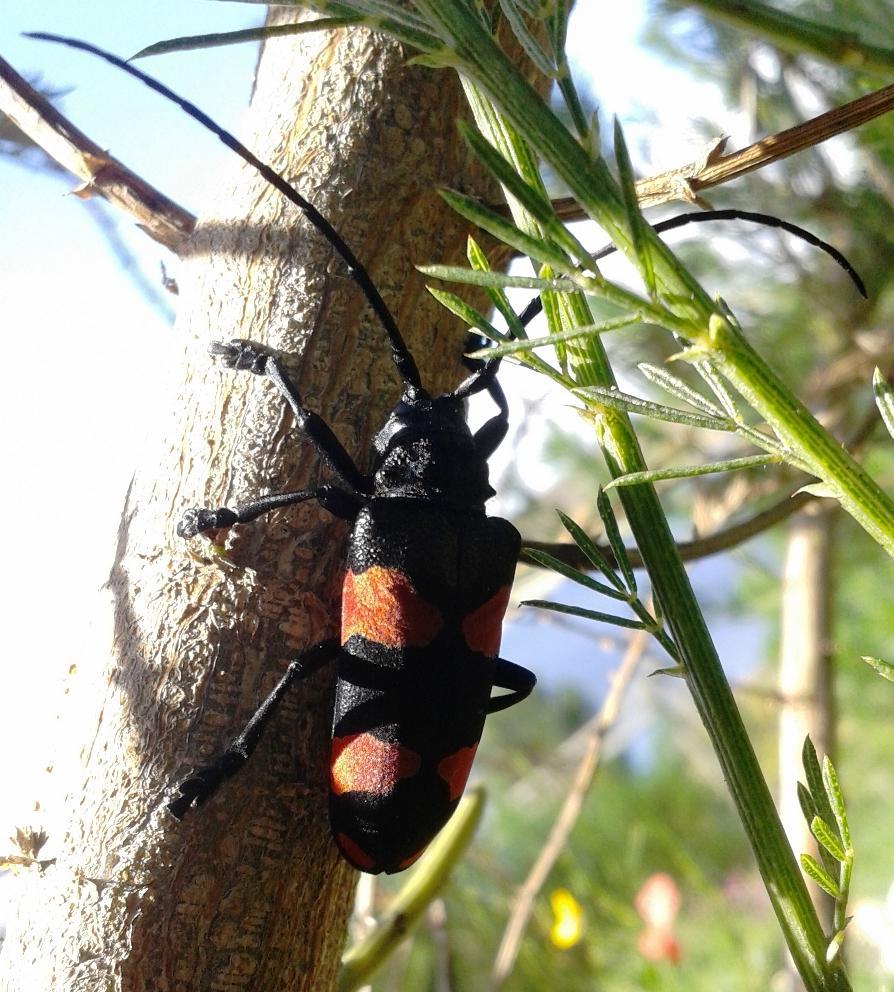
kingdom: Animalia
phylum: Arthropoda
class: Insecta
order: Coleoptera
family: Cerambycidae
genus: Ceroplesis
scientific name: Ceroplesis aethiops
